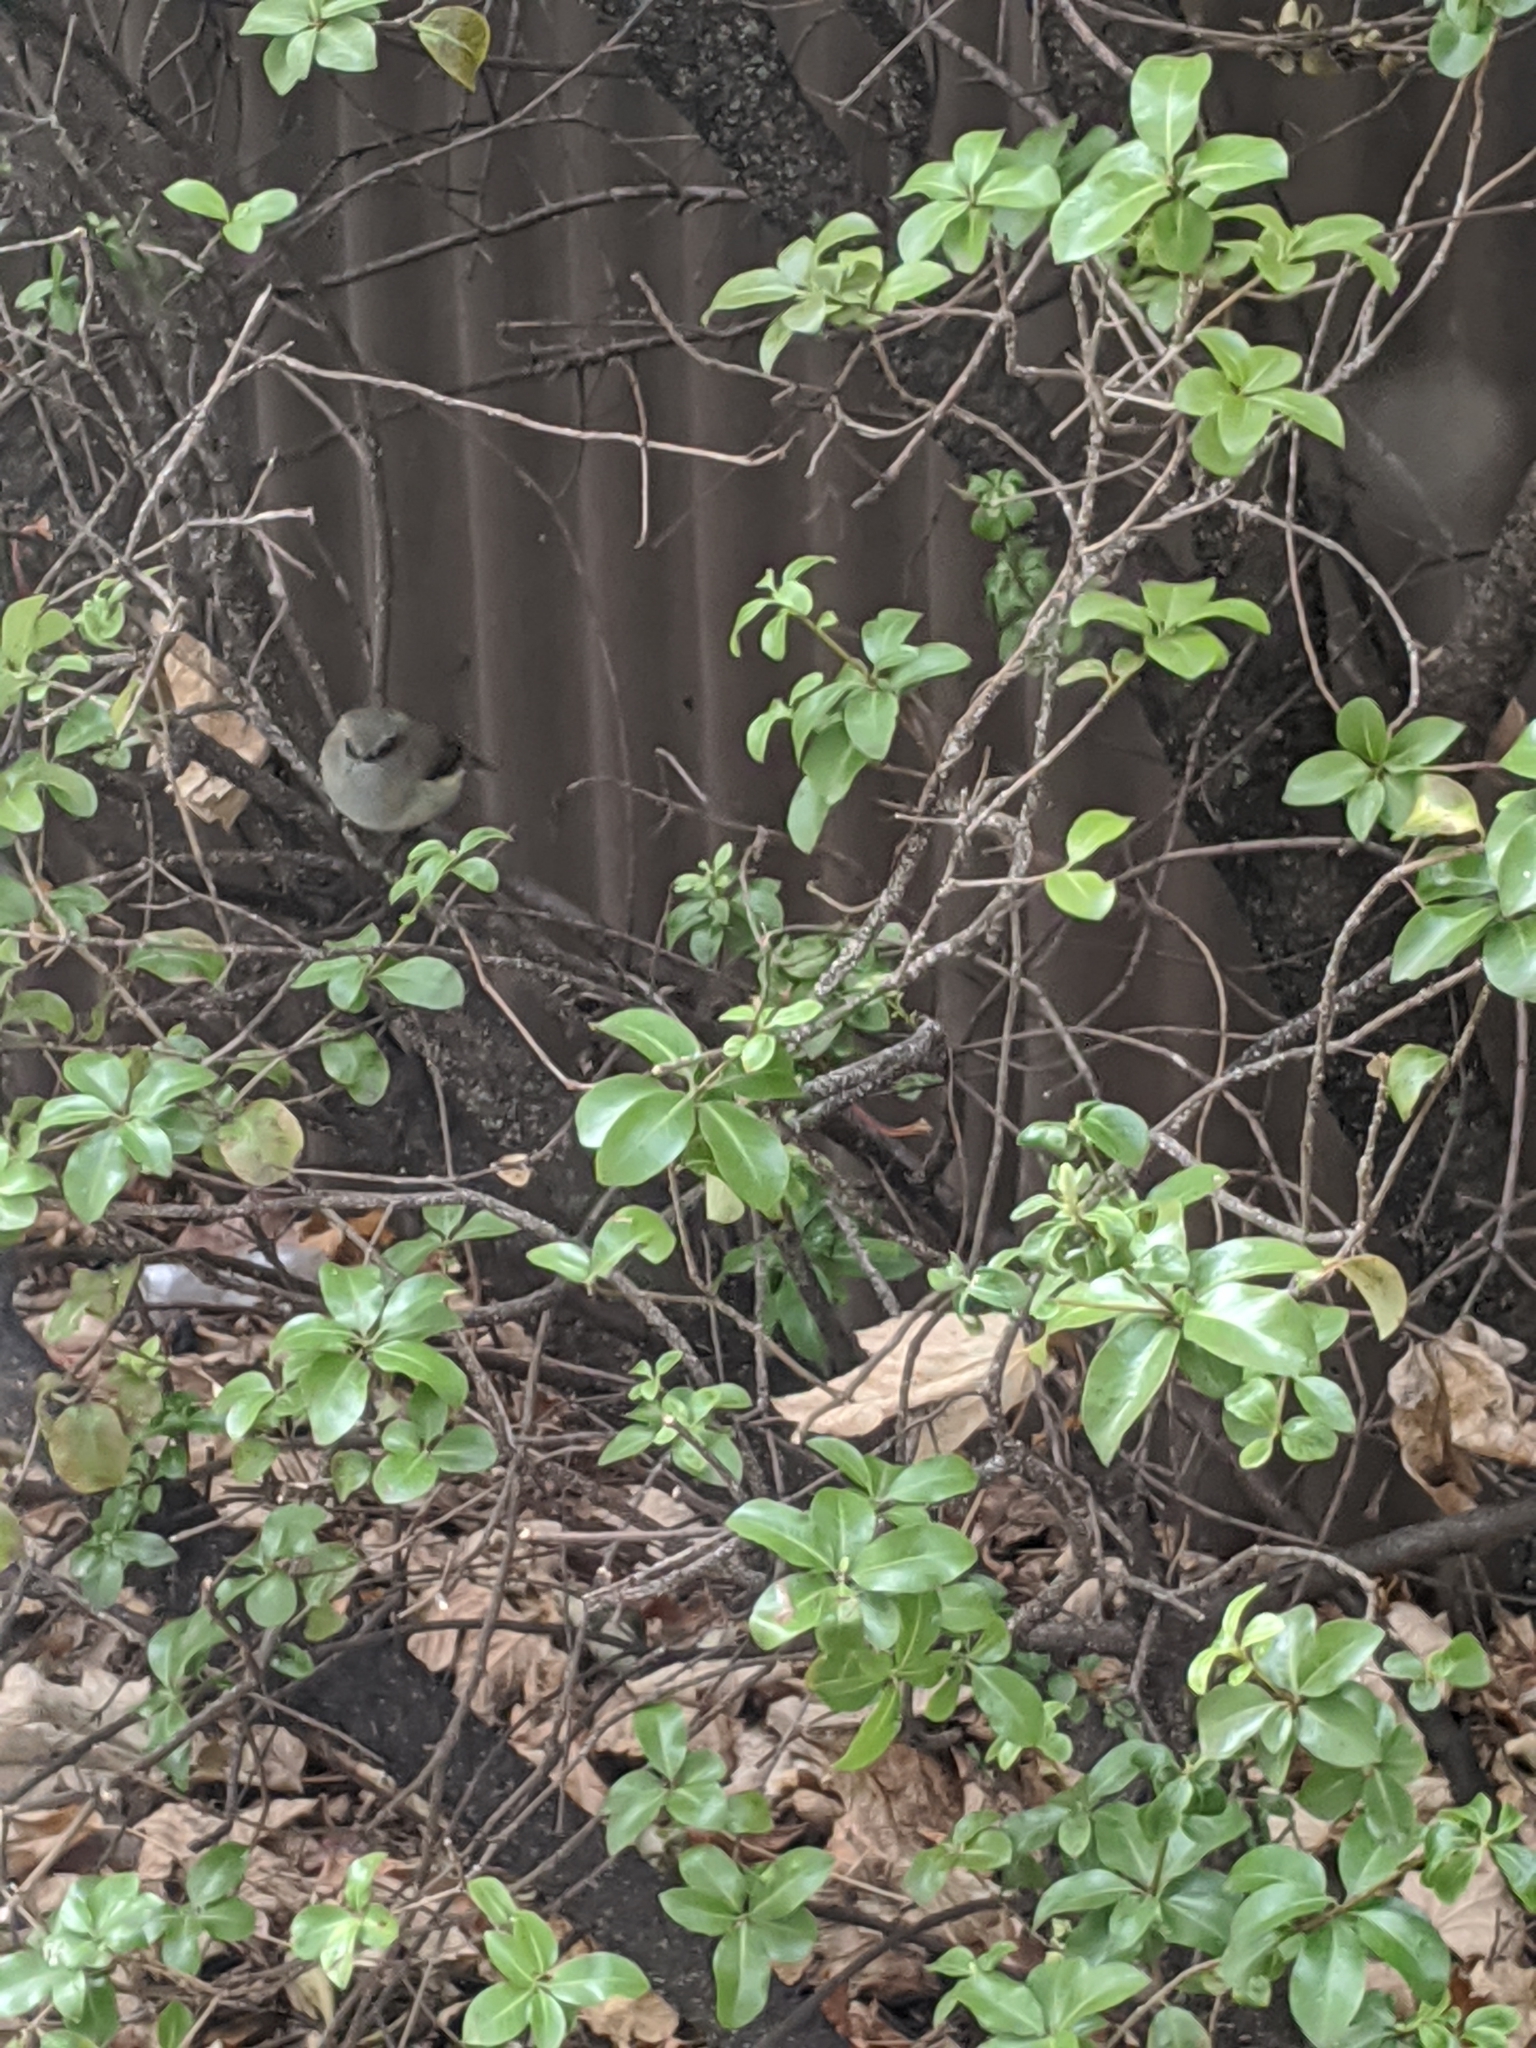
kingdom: Animalia
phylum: Chordata
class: Aves
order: Passeriformes
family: Acanthizidae
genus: Gerygone
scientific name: Gerygone igata
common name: Grey gerygone
